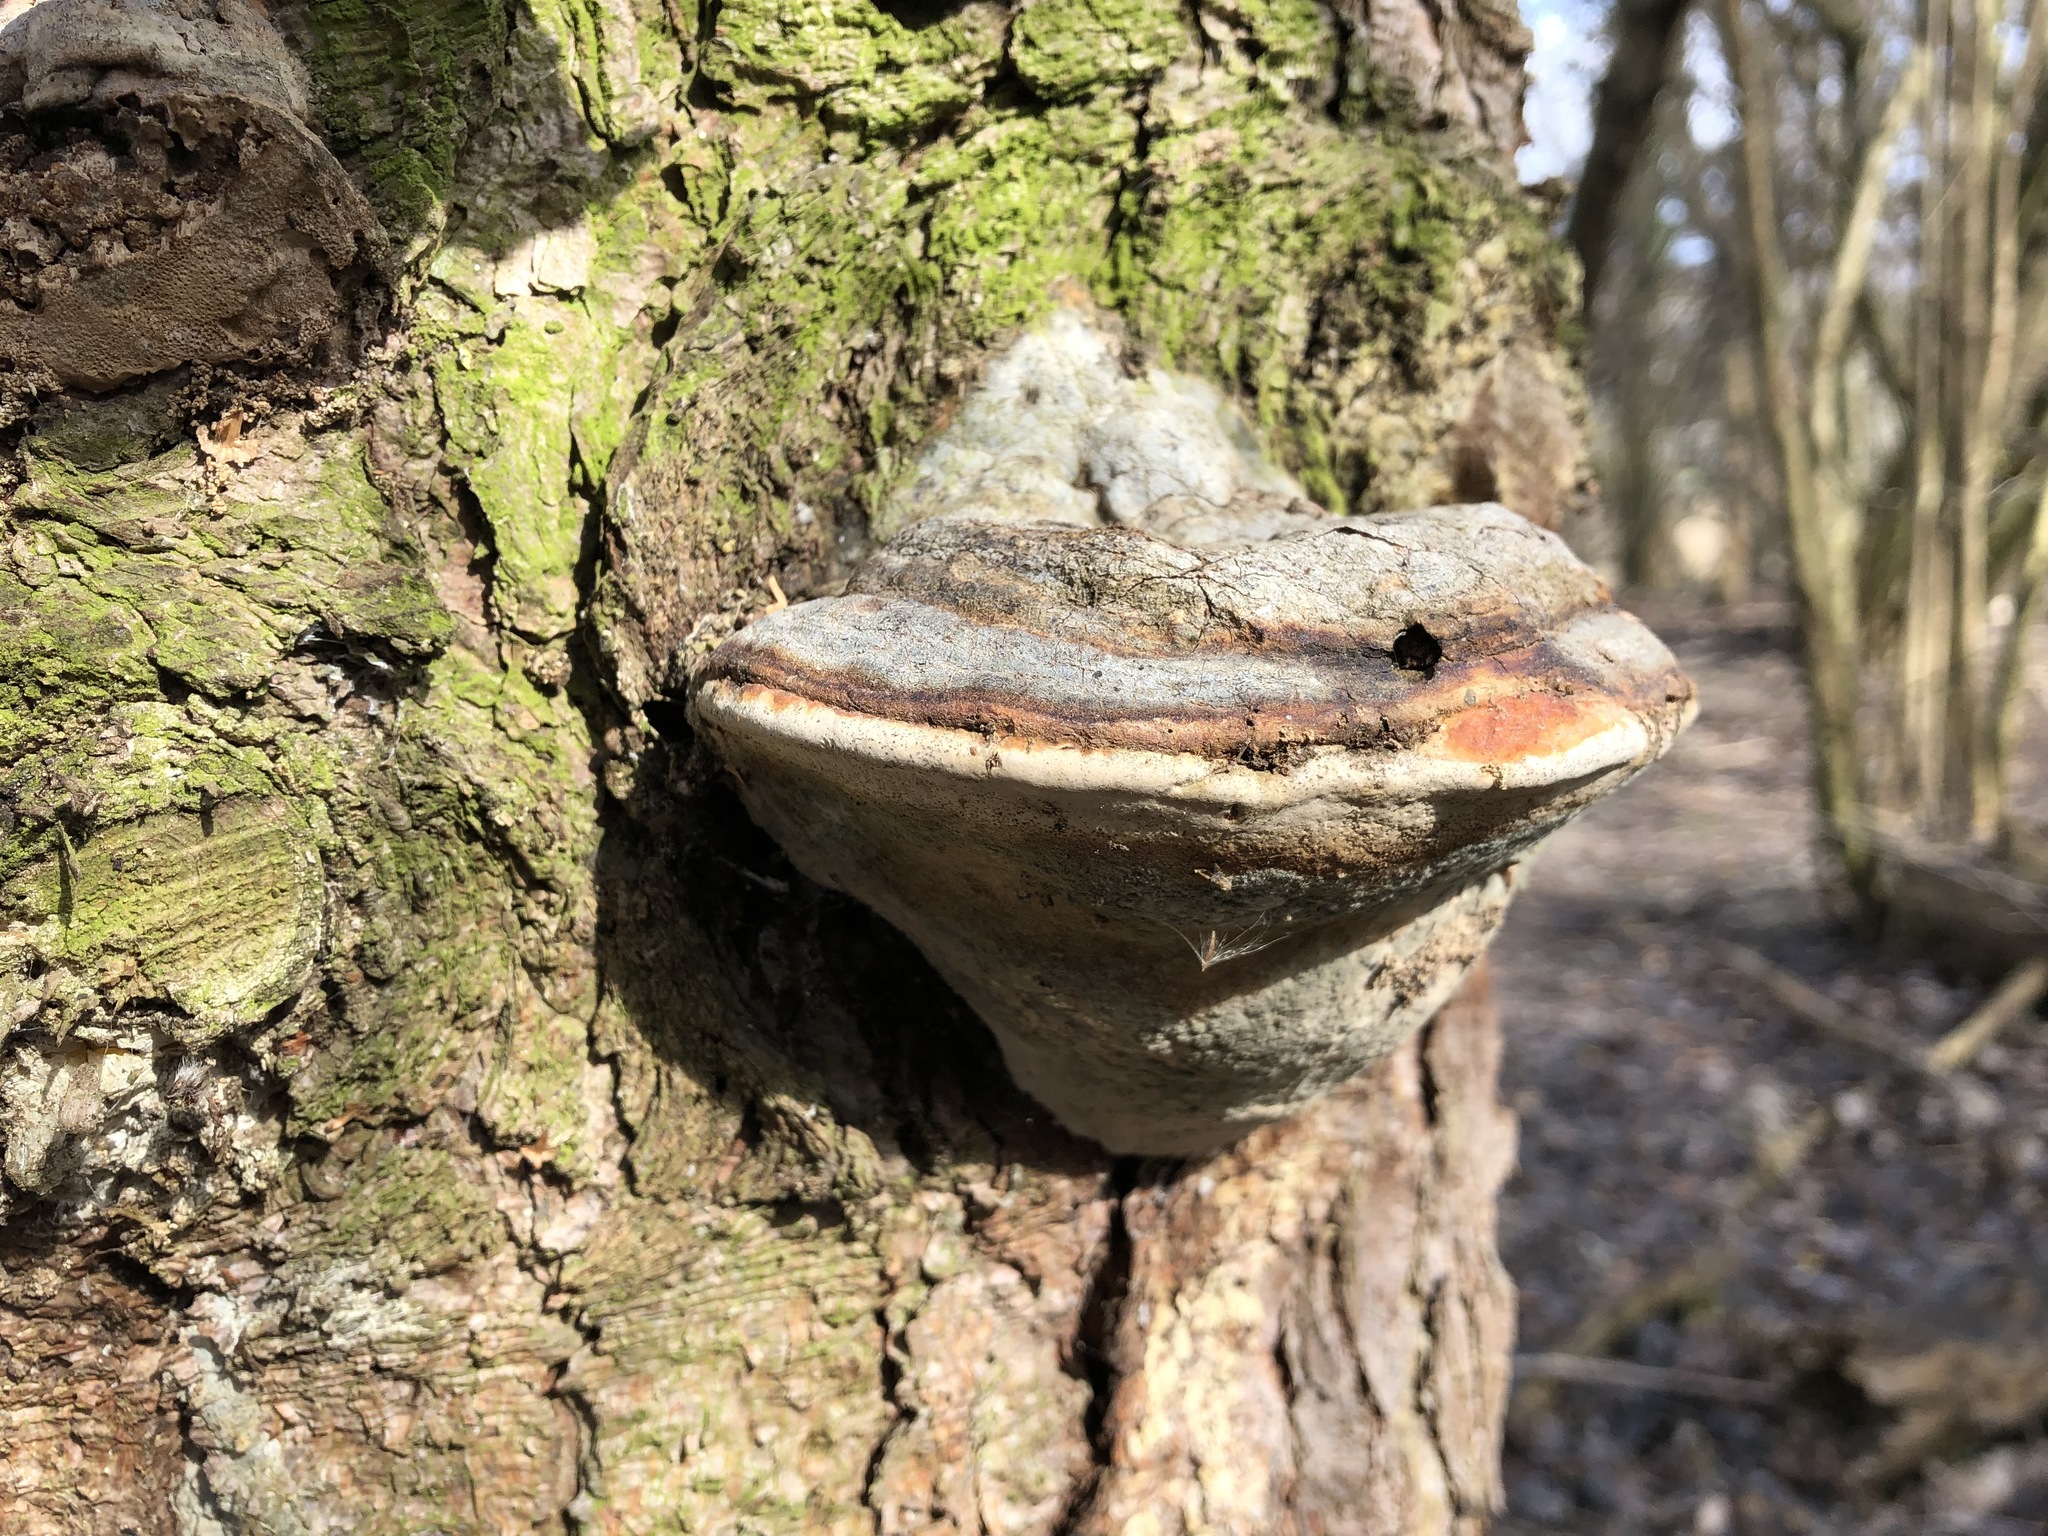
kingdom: Fungi
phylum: Basidiomycota
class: Agaricomycetes
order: Polyporales
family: Fomitopsidaceae
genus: Fomitopsis
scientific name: Fomitopsis pinicola
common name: Red-belted bracket
